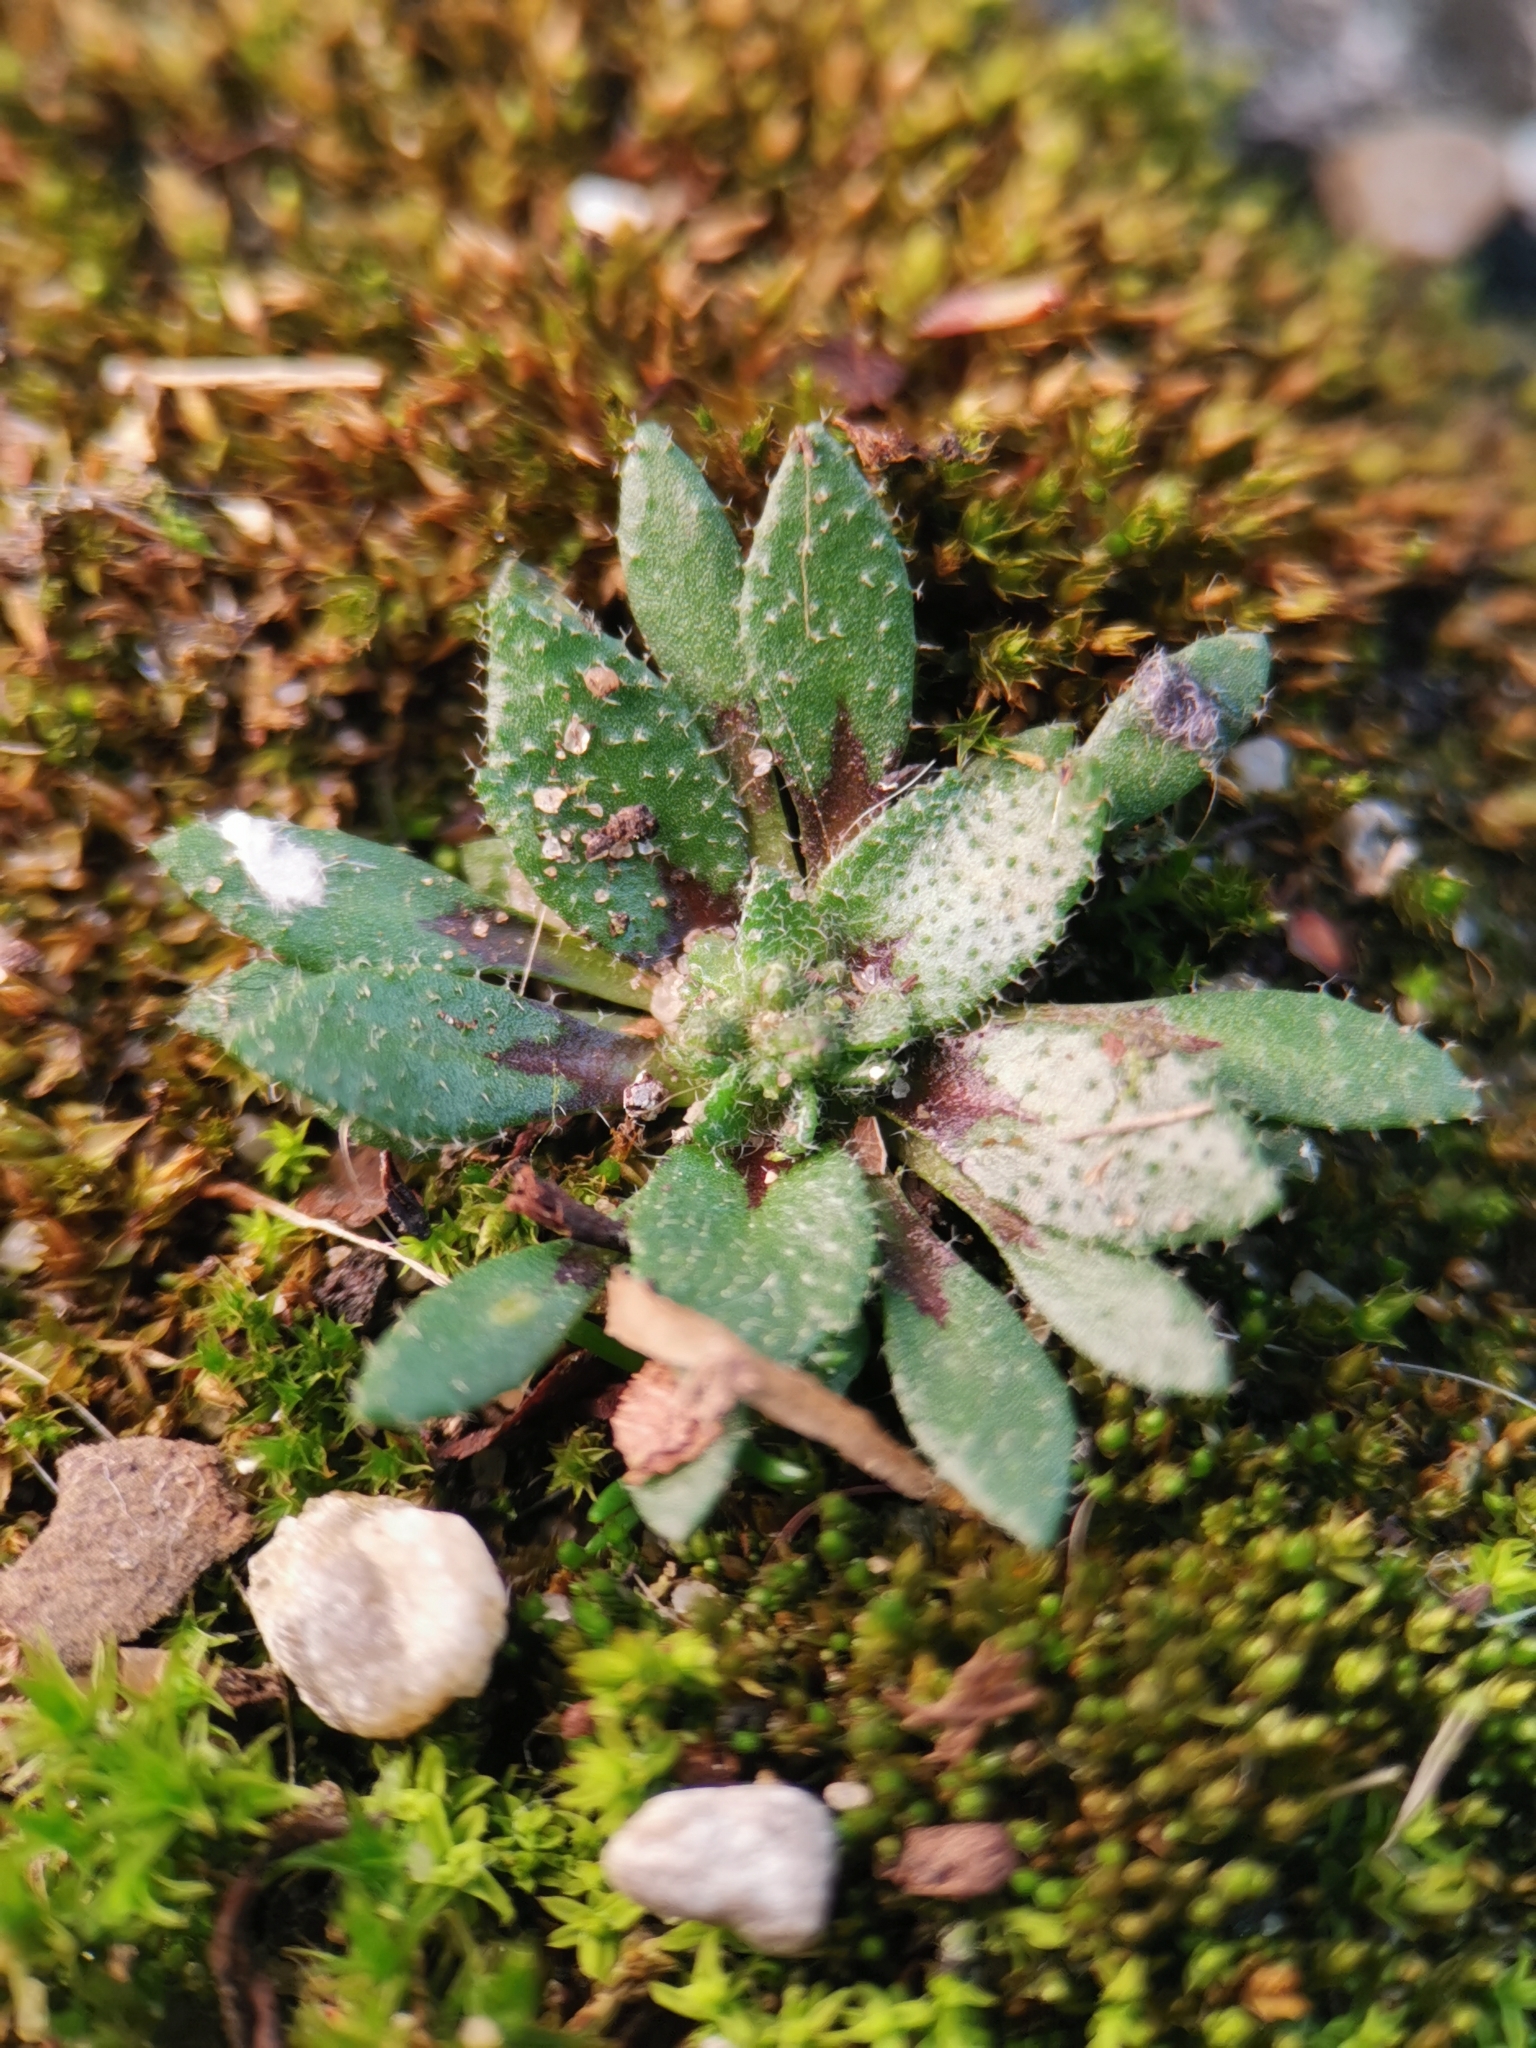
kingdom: Plantae
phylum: Tracheophyta
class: Magnoliopsida
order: Brassicales
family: Brassicaceae
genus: Draba
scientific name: Draba verna
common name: Spring draba
